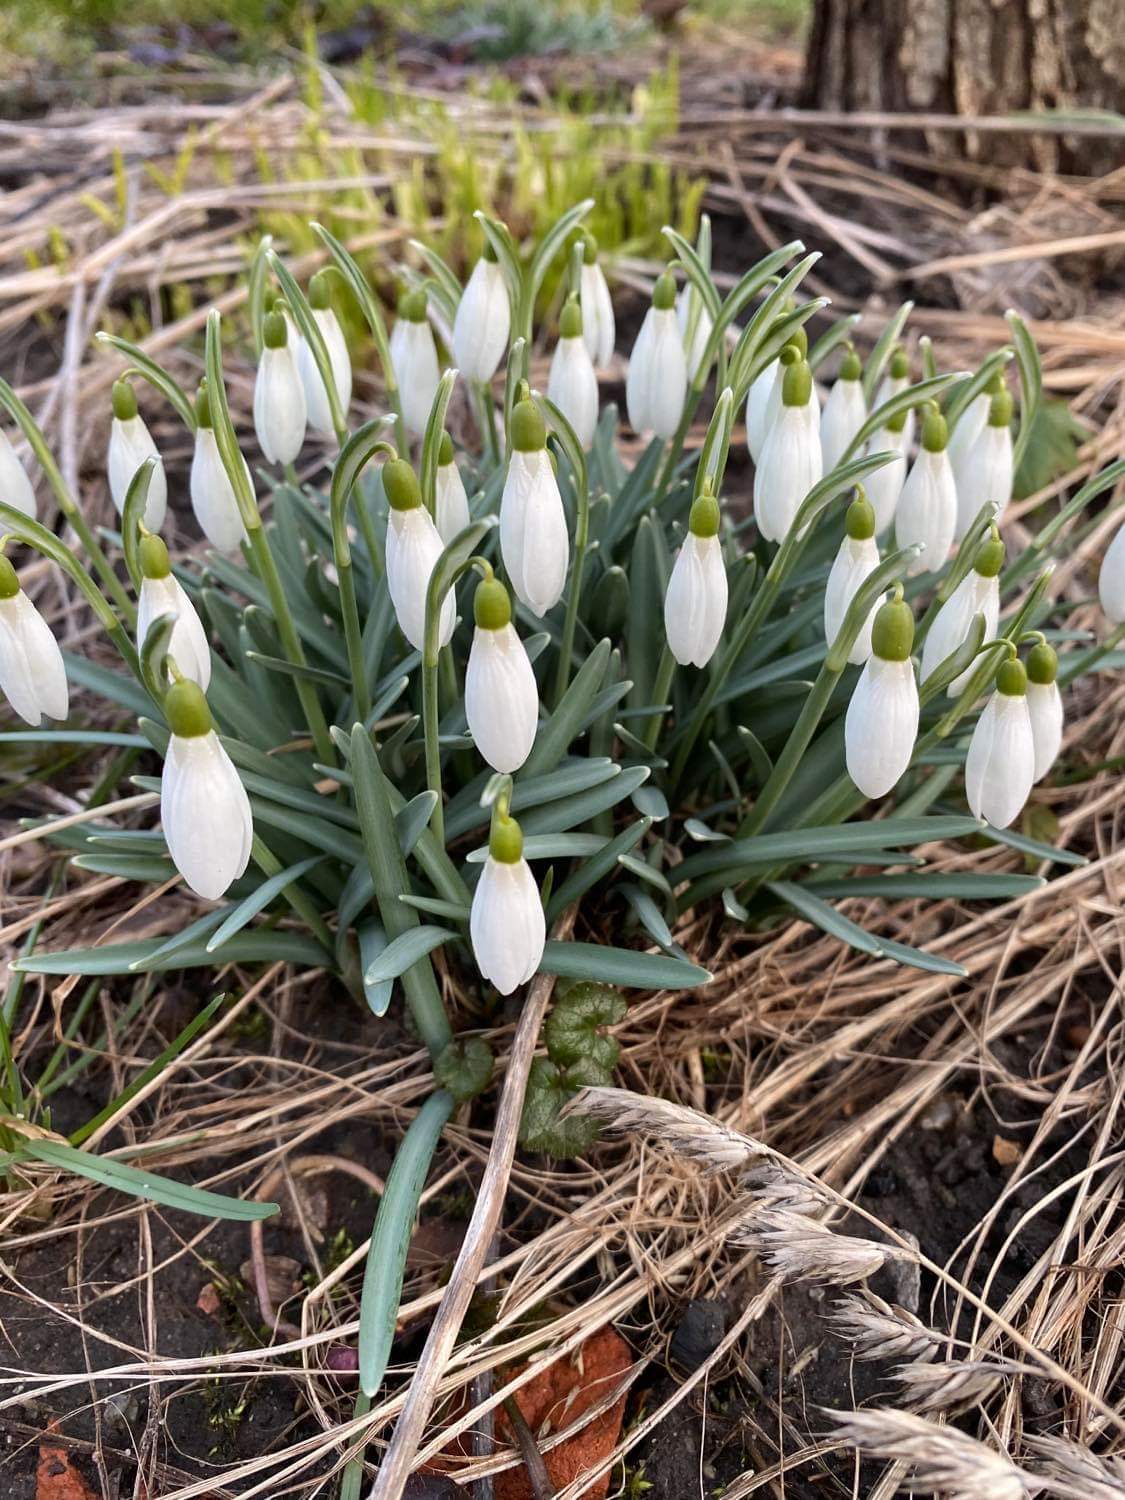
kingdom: Plantae
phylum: Tracheophyta
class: Liliopsida
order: Asparagales
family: Amaryllidaceae
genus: Galanthus
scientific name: Galanthus nivalis
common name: Snowdrop
